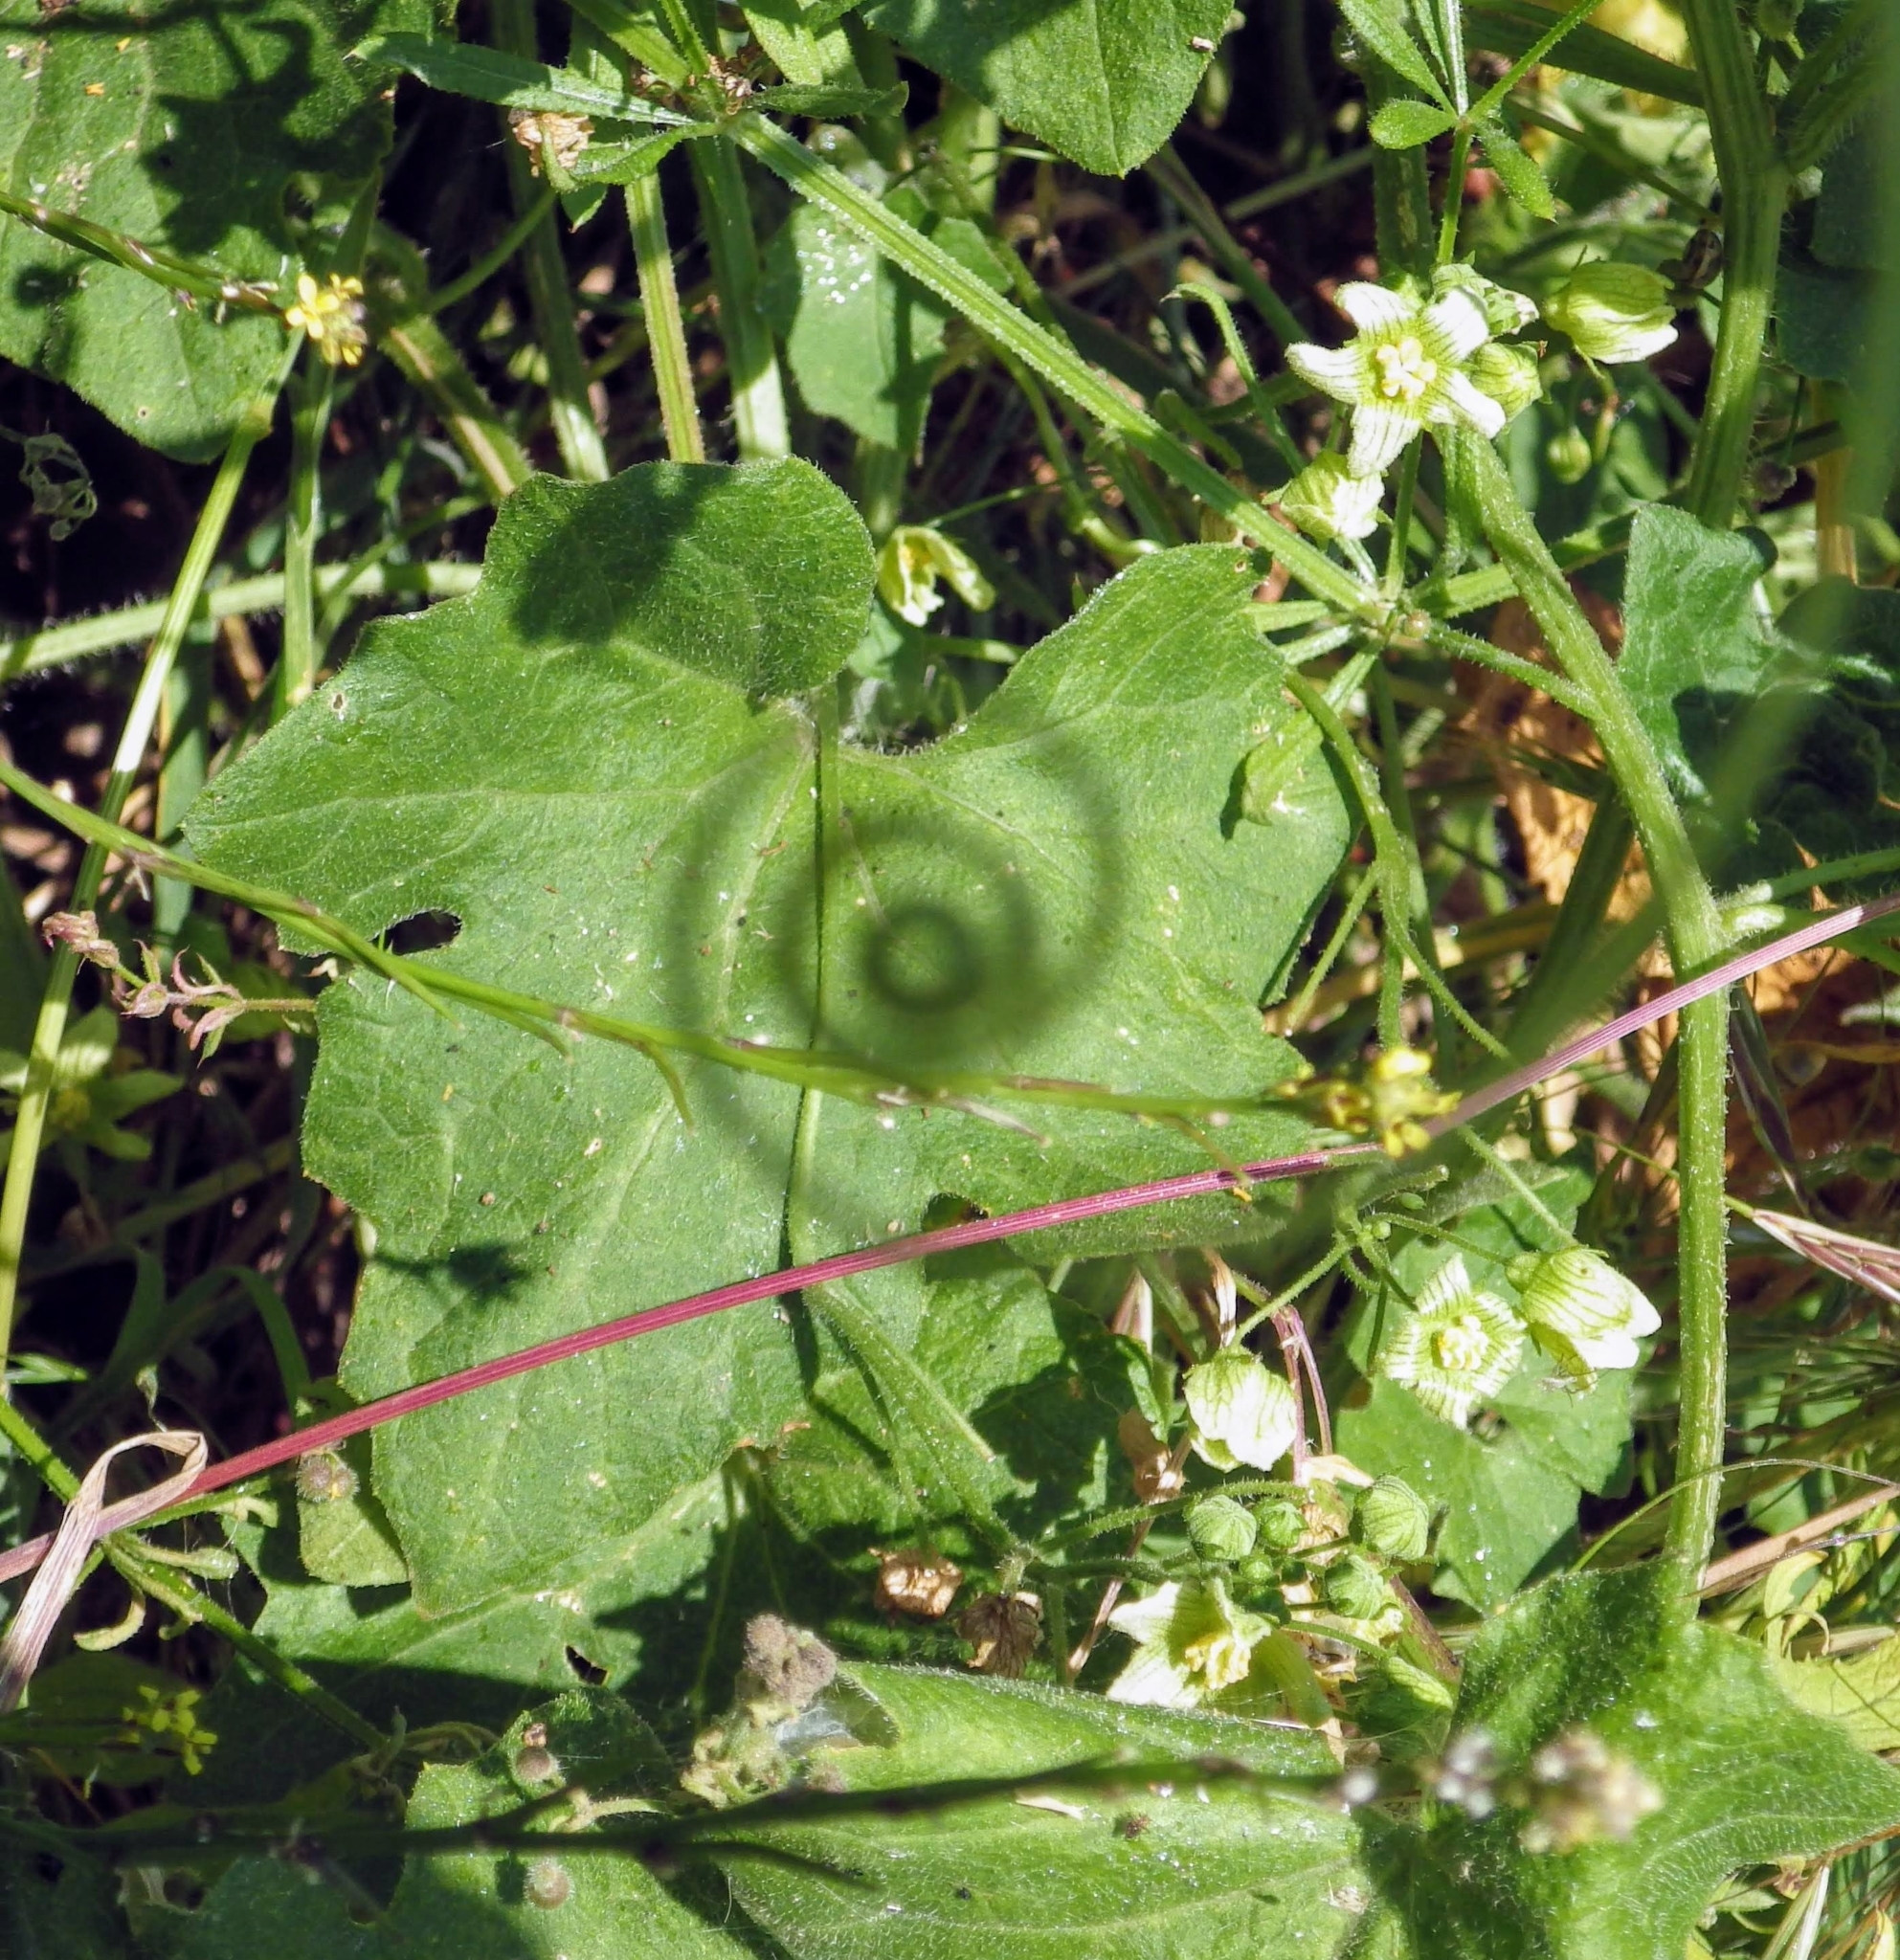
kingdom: Plantae
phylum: Tracheophyta
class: Magnoliopsida
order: Cucurbitales
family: Cucurbitaceae
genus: Bryonia
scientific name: Bryonia cretica
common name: Cretan bryony
